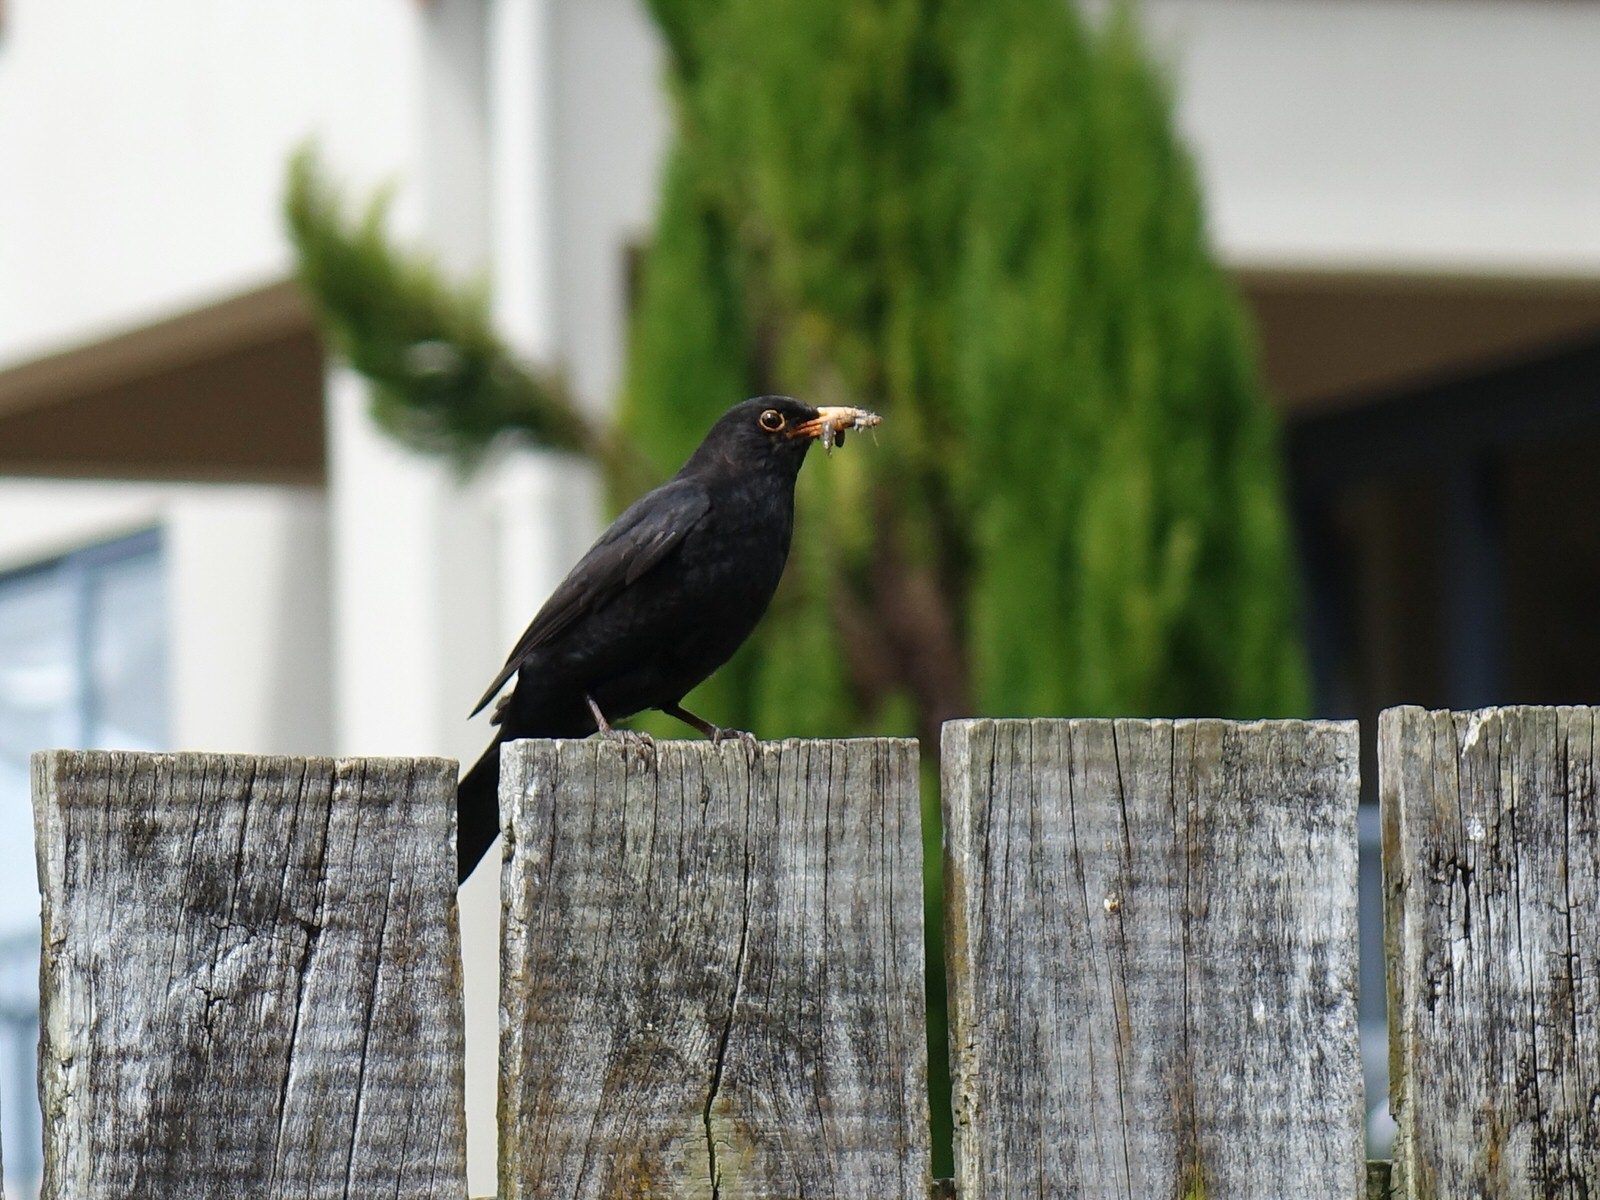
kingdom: Animalia
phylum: Chordata
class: Aves
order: Passeriformes
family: Turdidae
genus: Turdus
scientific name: Turdus merula
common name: Common blackbird
